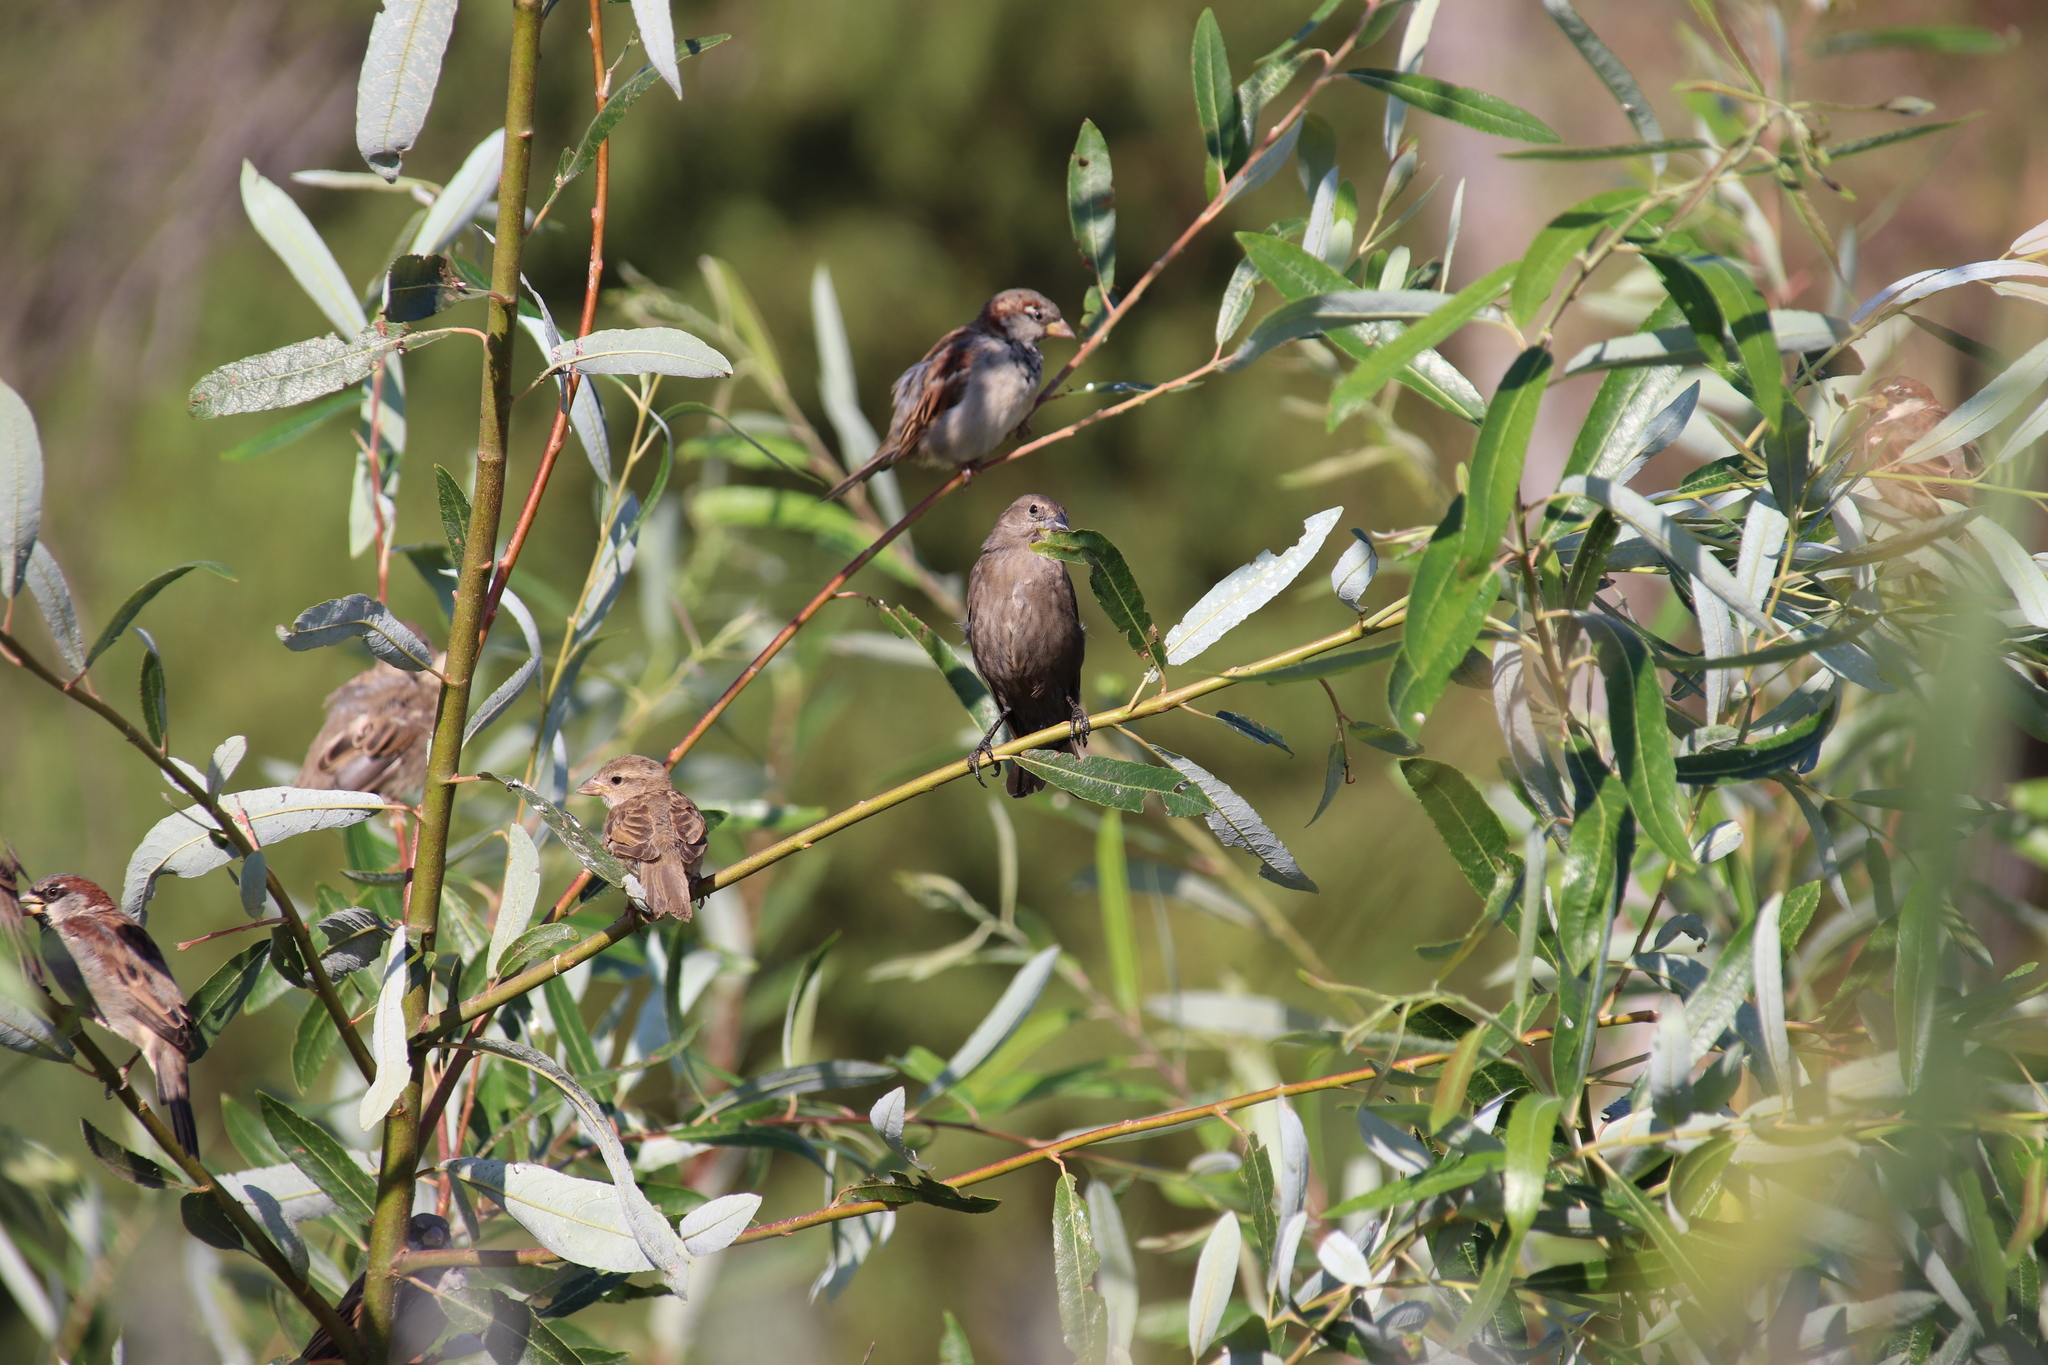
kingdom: Animalia
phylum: Chordata
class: Aves
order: Passeriformes
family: Icteridae
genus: Molothrus
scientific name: Molothrus ater
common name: Brown-headed cowbird
